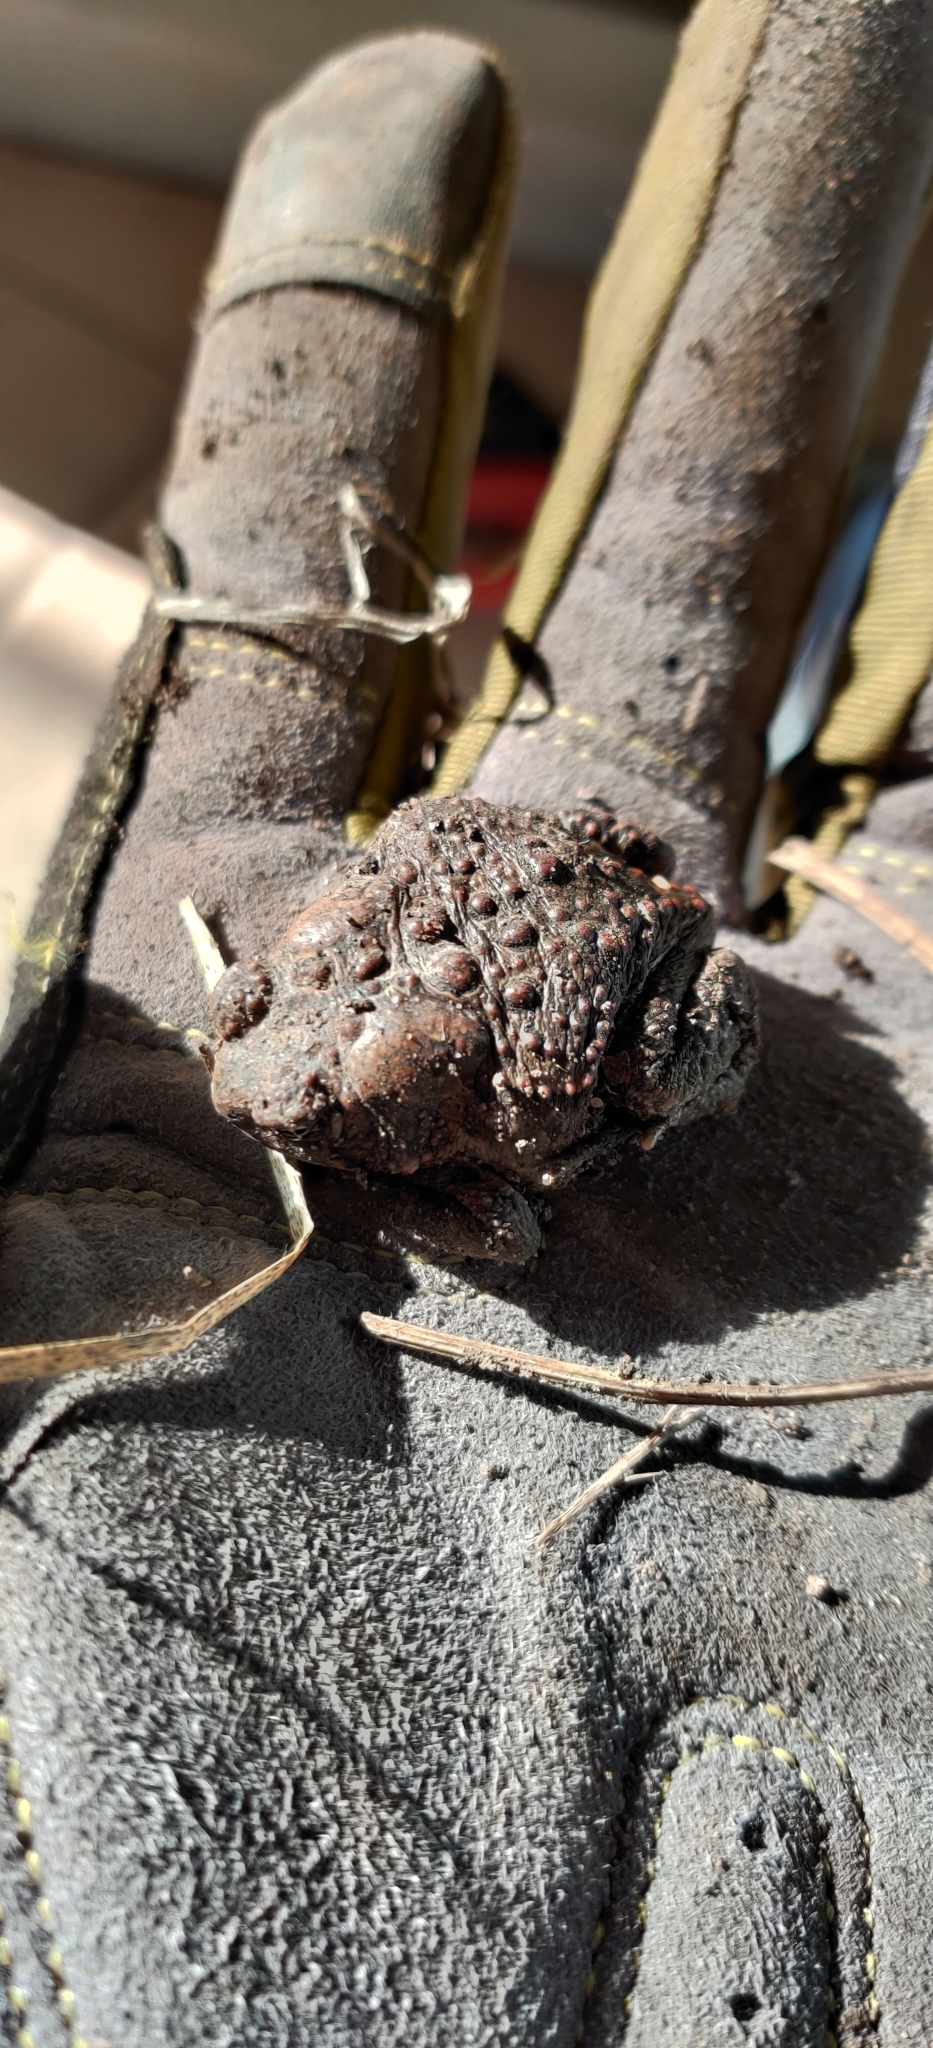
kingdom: Animalia
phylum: Chordata
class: Amphibia
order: Anura
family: Bufonidae
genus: Anaxyrus
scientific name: Anaxyrus americanus
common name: American toad
